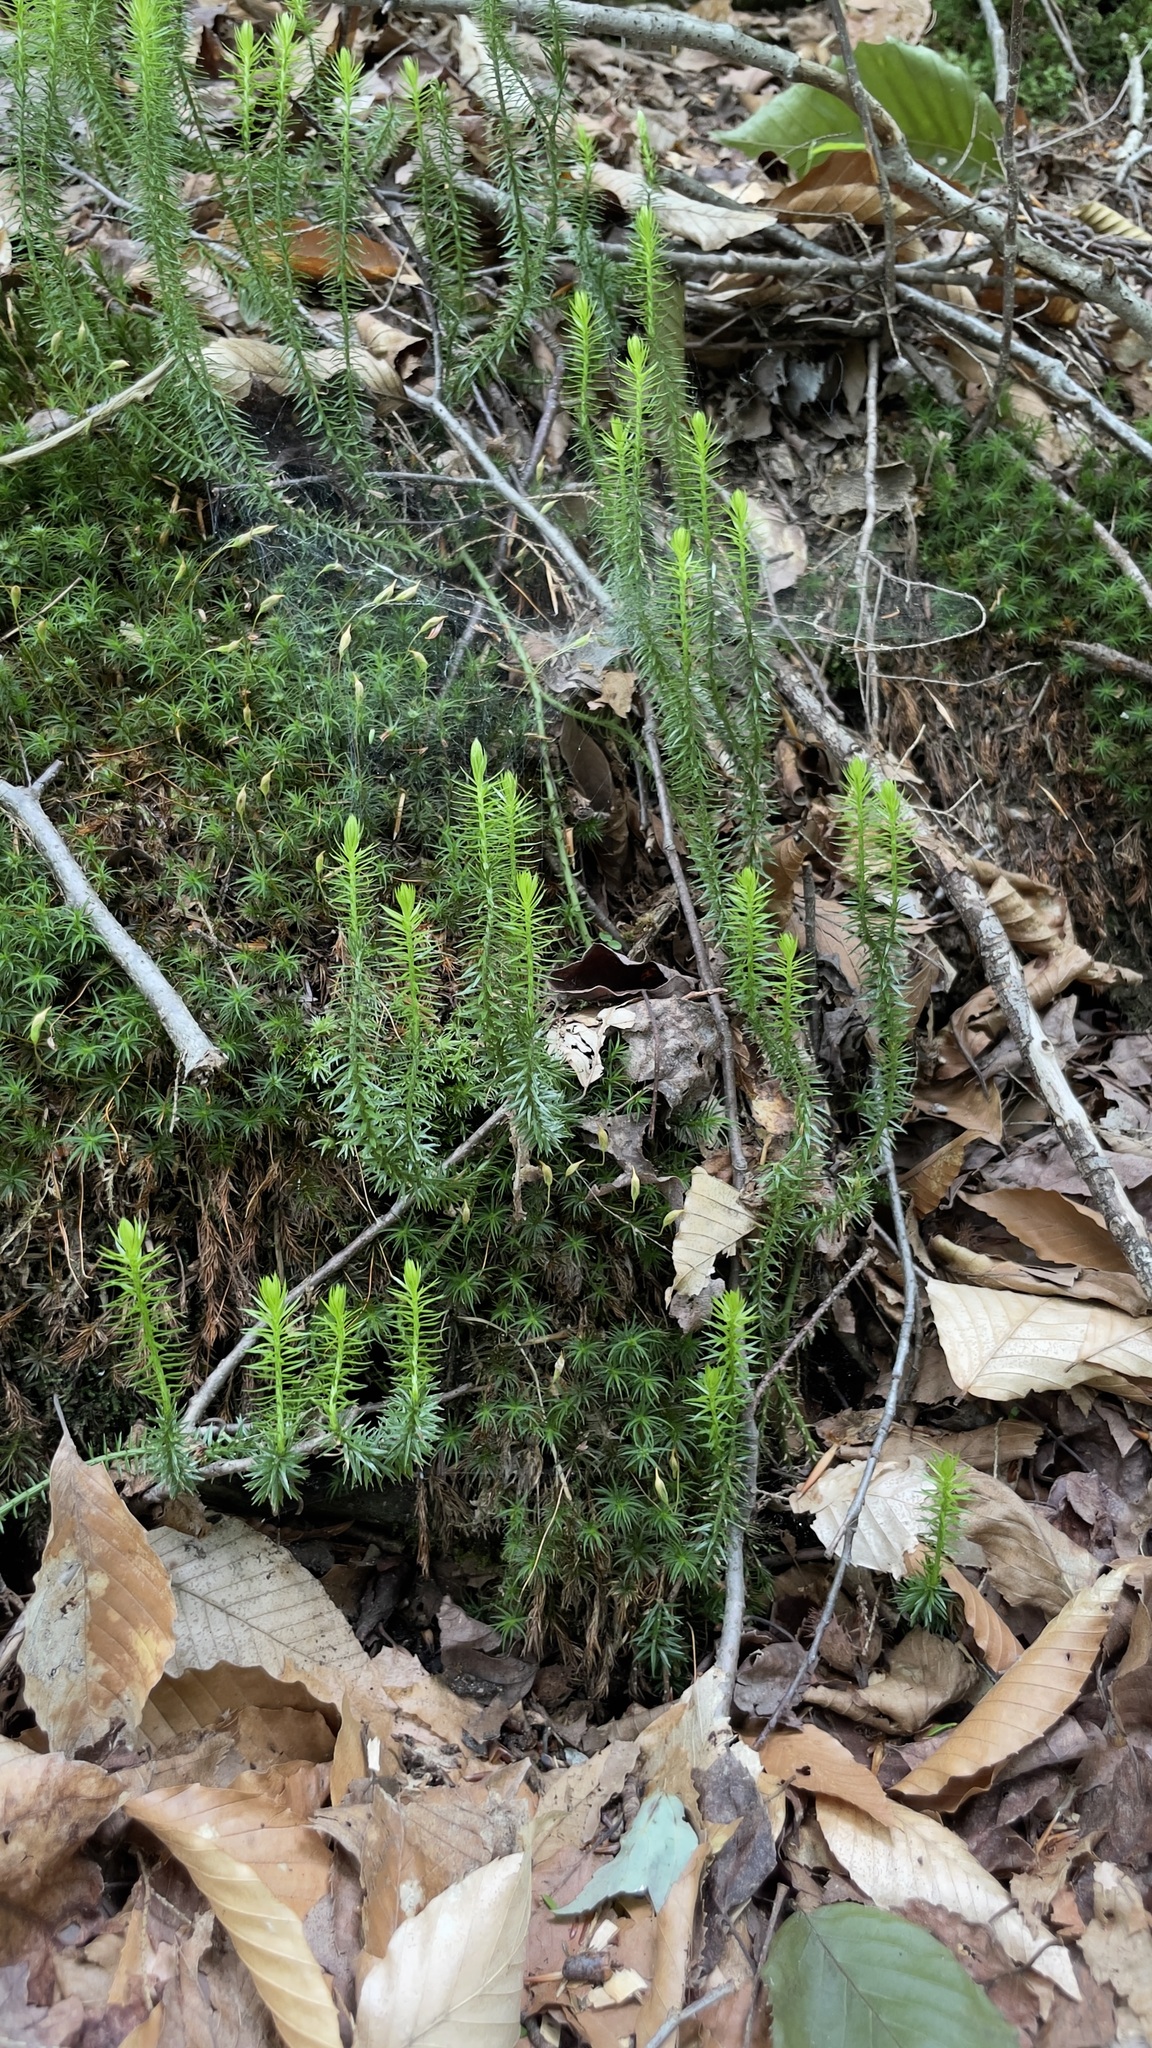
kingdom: Plantae
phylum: Tracheophyta
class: Lycopodiopsida
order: Lycopodiales
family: Lycopodiaceae
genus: Spinulum
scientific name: Spinulum annotinum
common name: Interrupted club-moss
